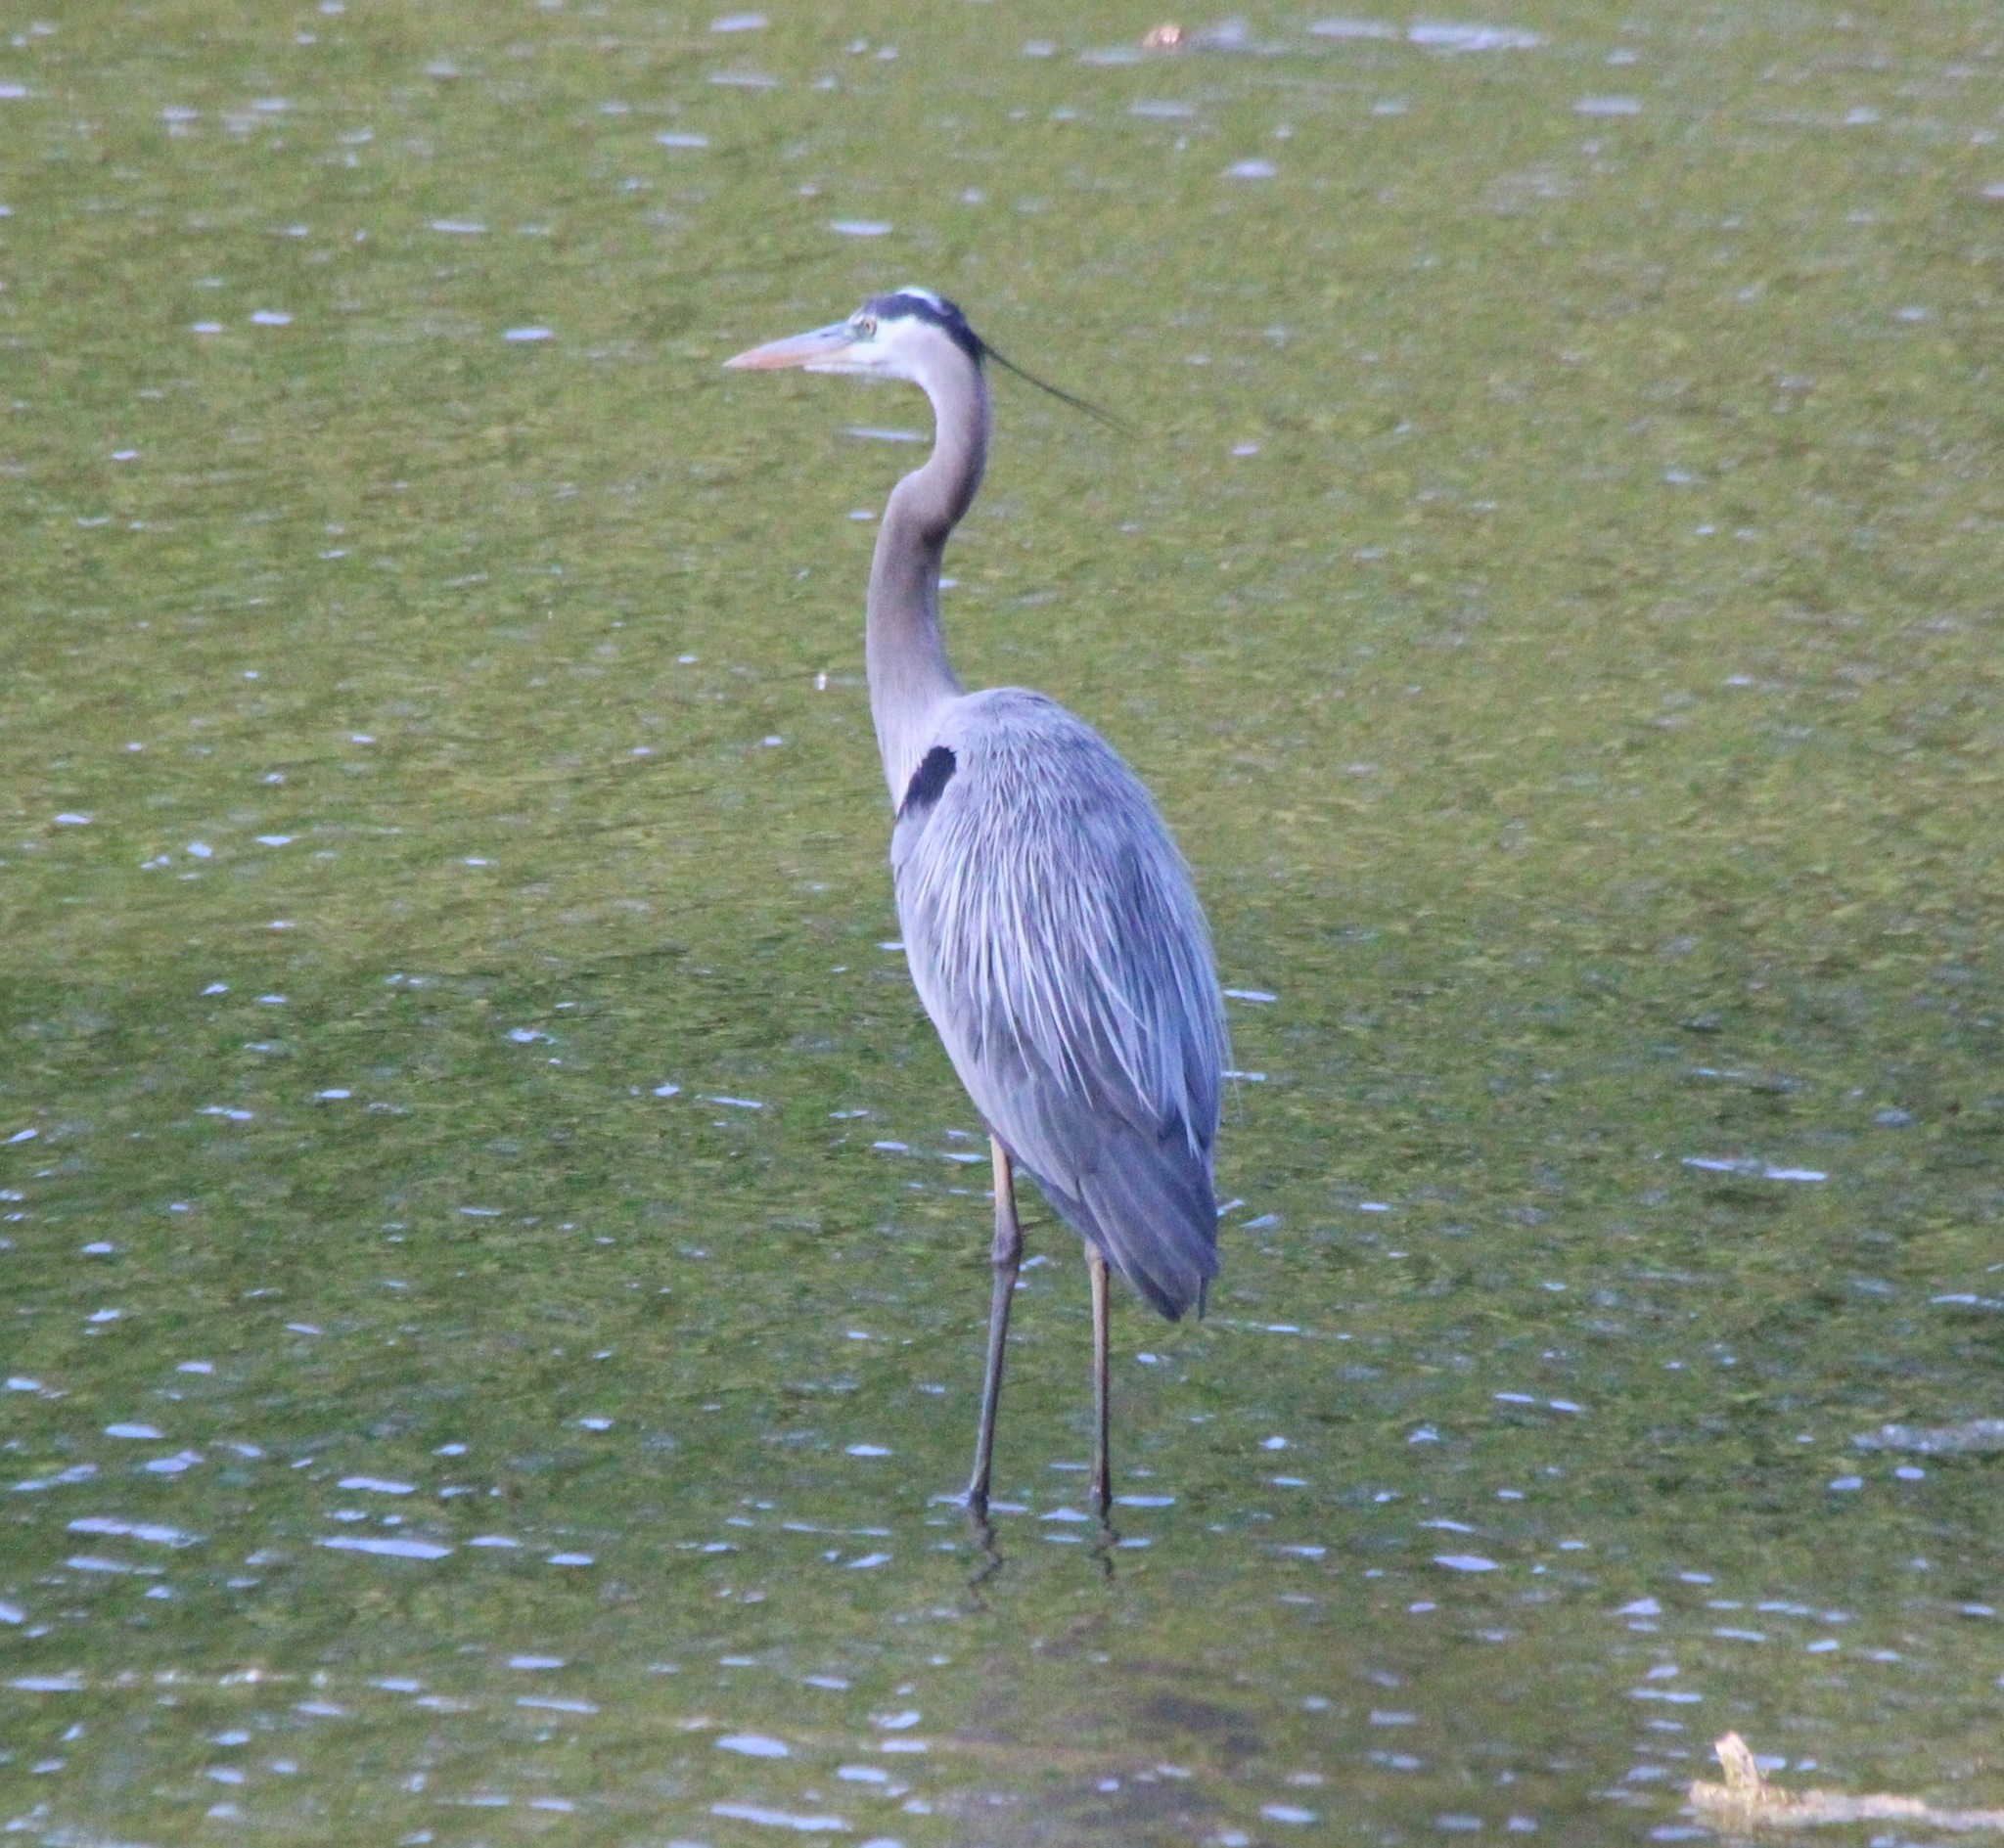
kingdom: Animalia
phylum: Chordata
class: Aves
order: Pelecaniformes
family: Ardeidae
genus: Ardea
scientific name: Ardea herodias
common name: Great blue heron
